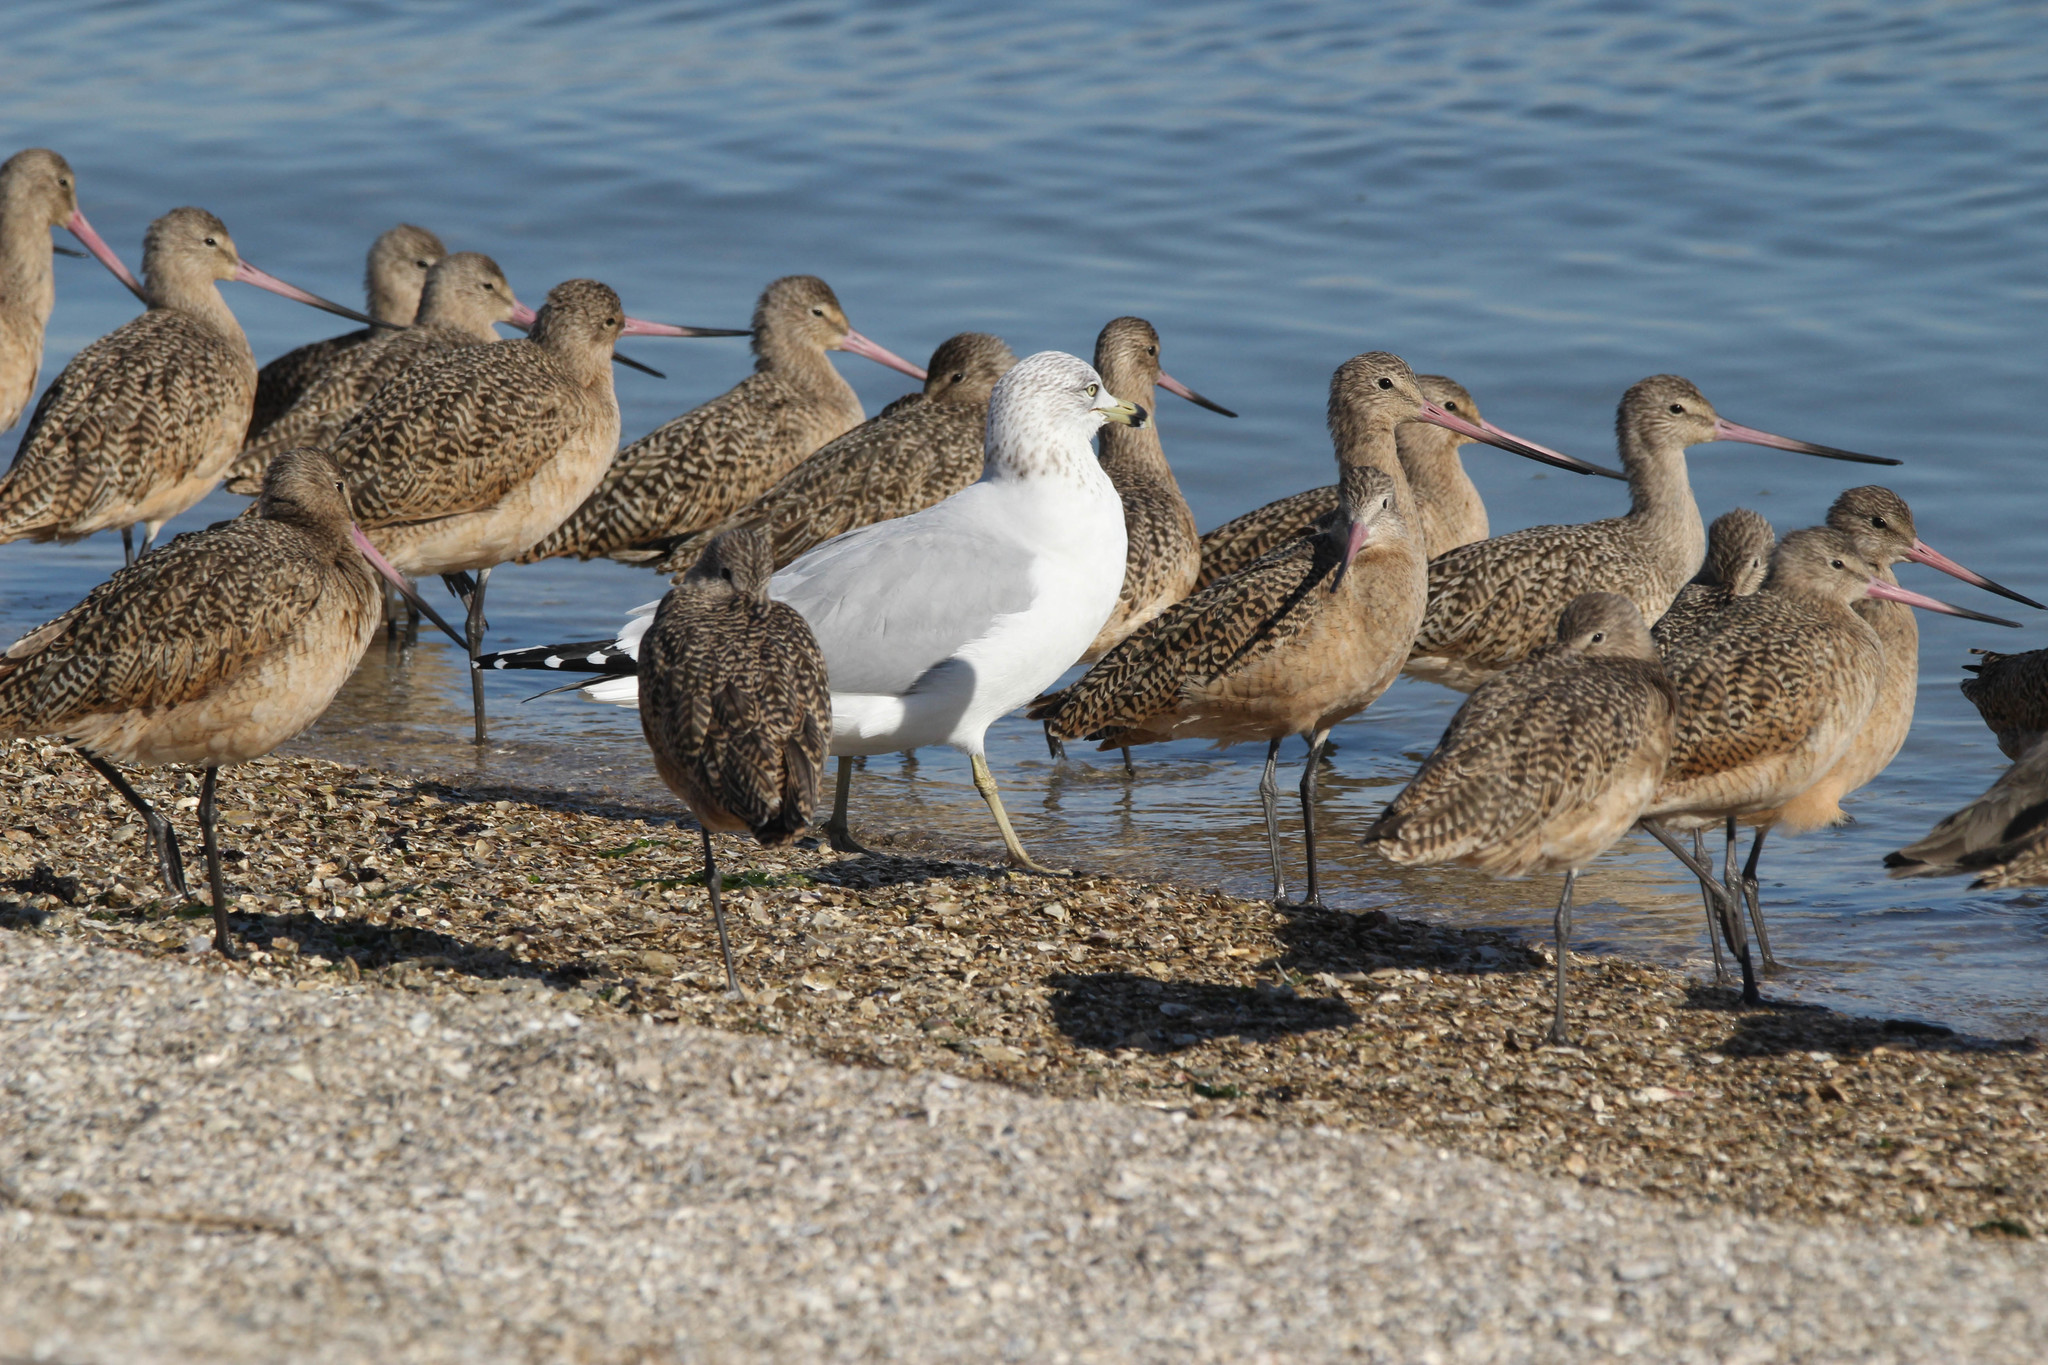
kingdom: Animalia
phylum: Chordata
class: Aves
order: Charadriiformes
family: Laridae
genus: Larus
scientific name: Larus delawarensis
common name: Ring-billed gull
